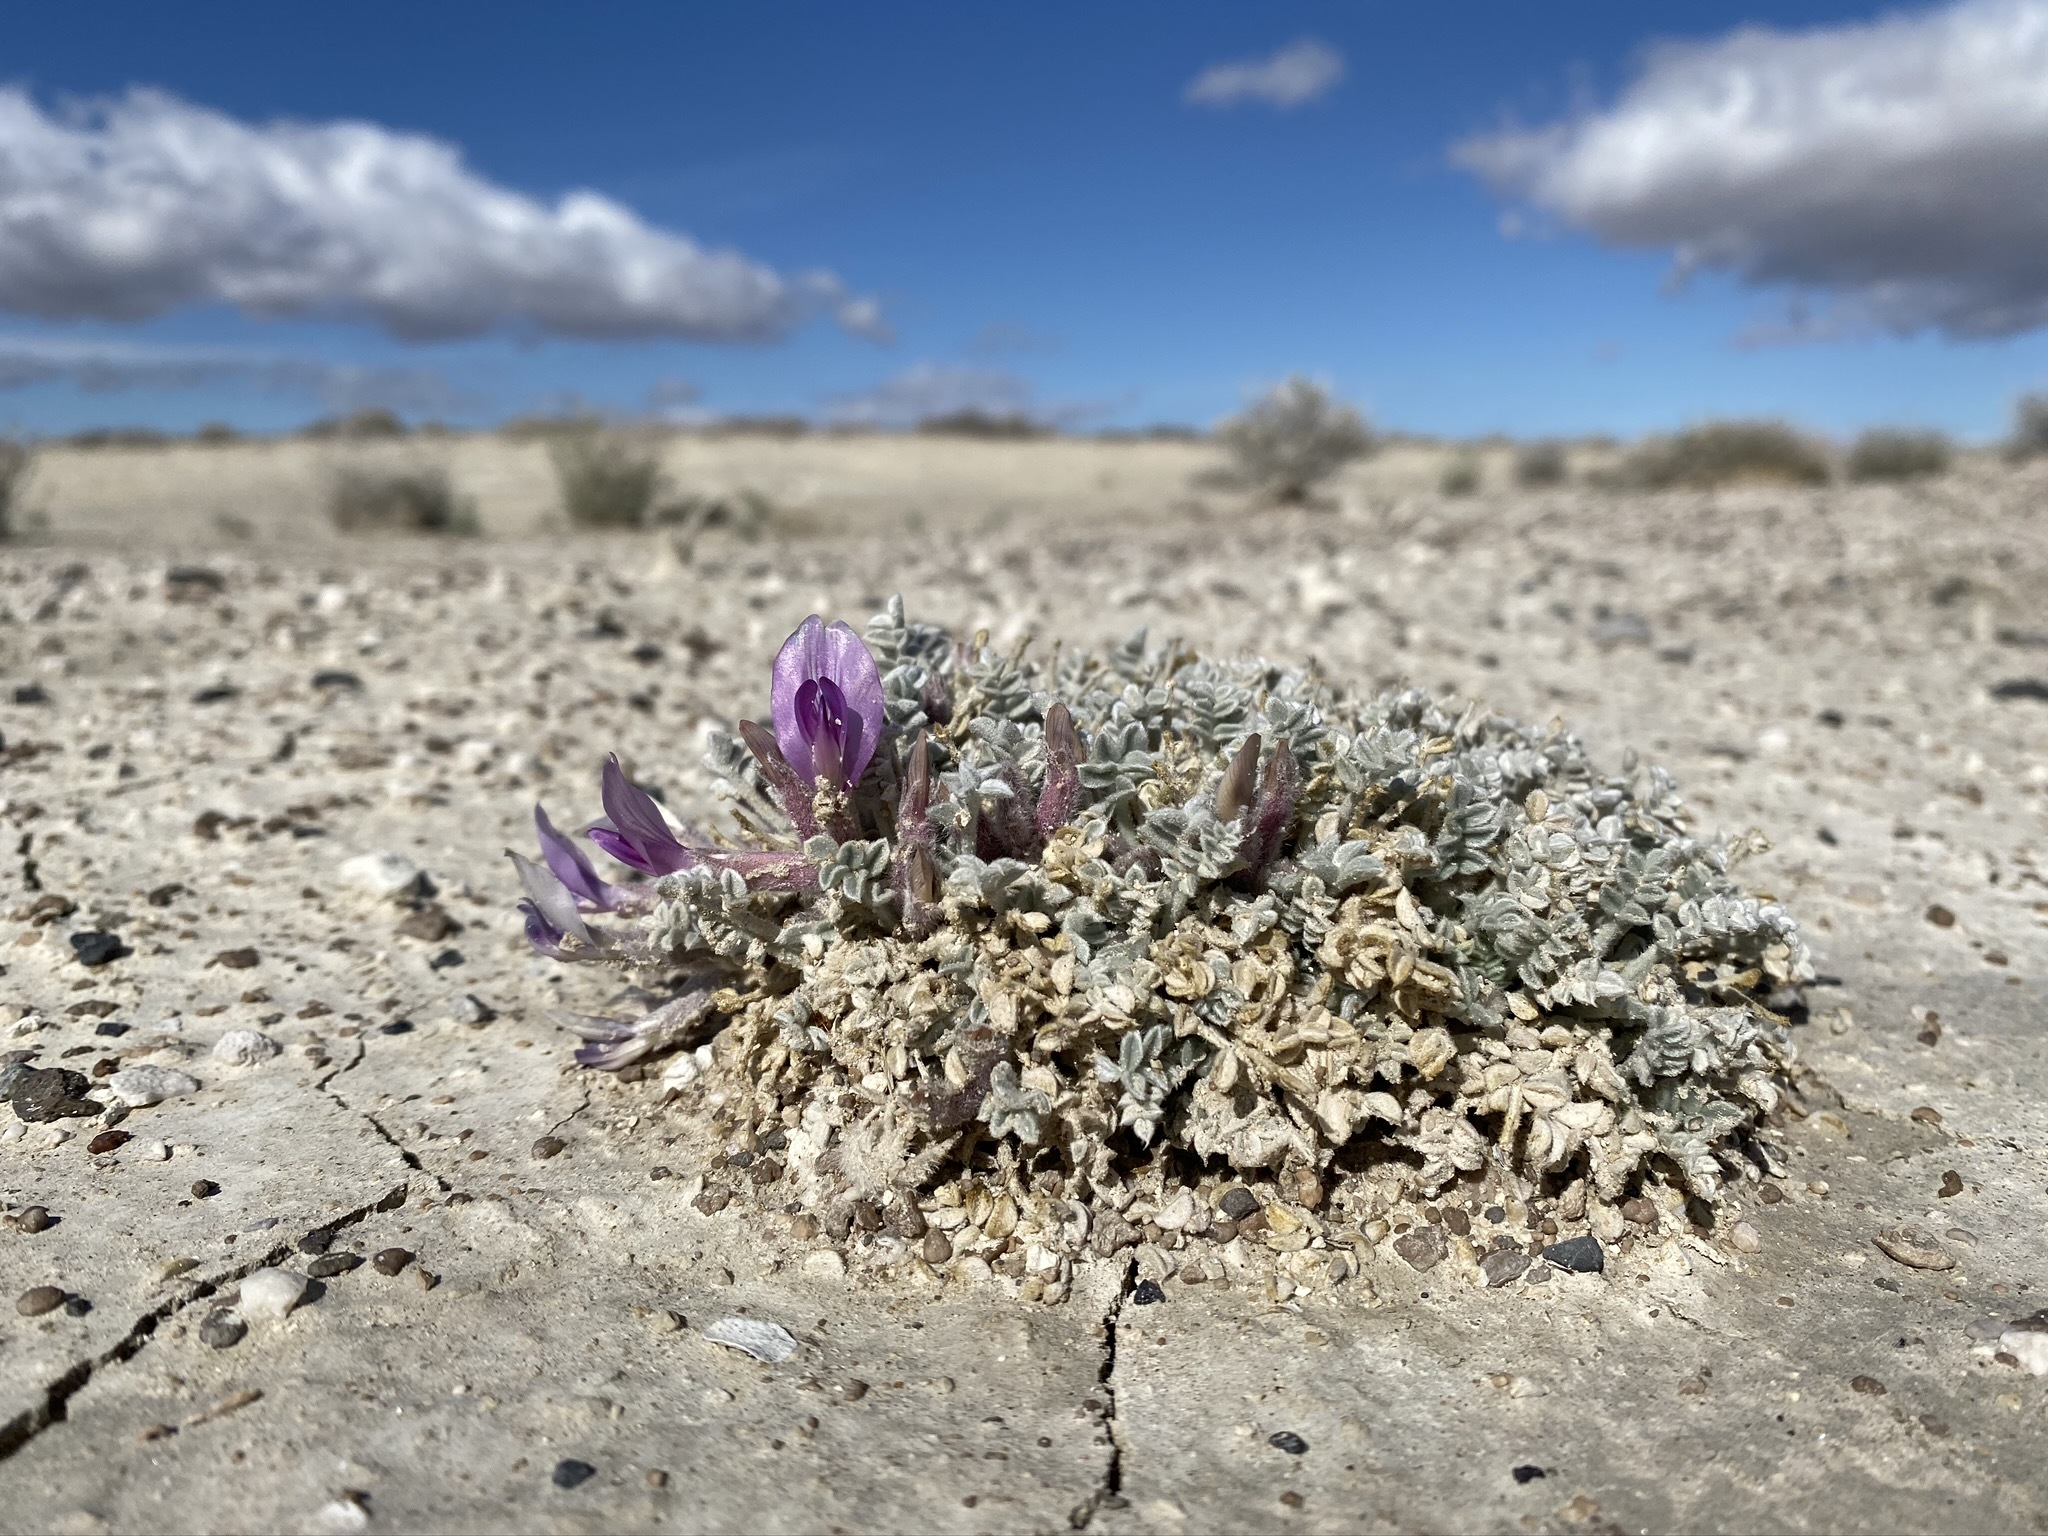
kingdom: Plantae
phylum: Tracheophyta
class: Magnoliopsida
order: Fabales
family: Fabaceae
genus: Astragalus
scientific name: Astragalus phoenix
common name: Ash meadows milk-vetch
